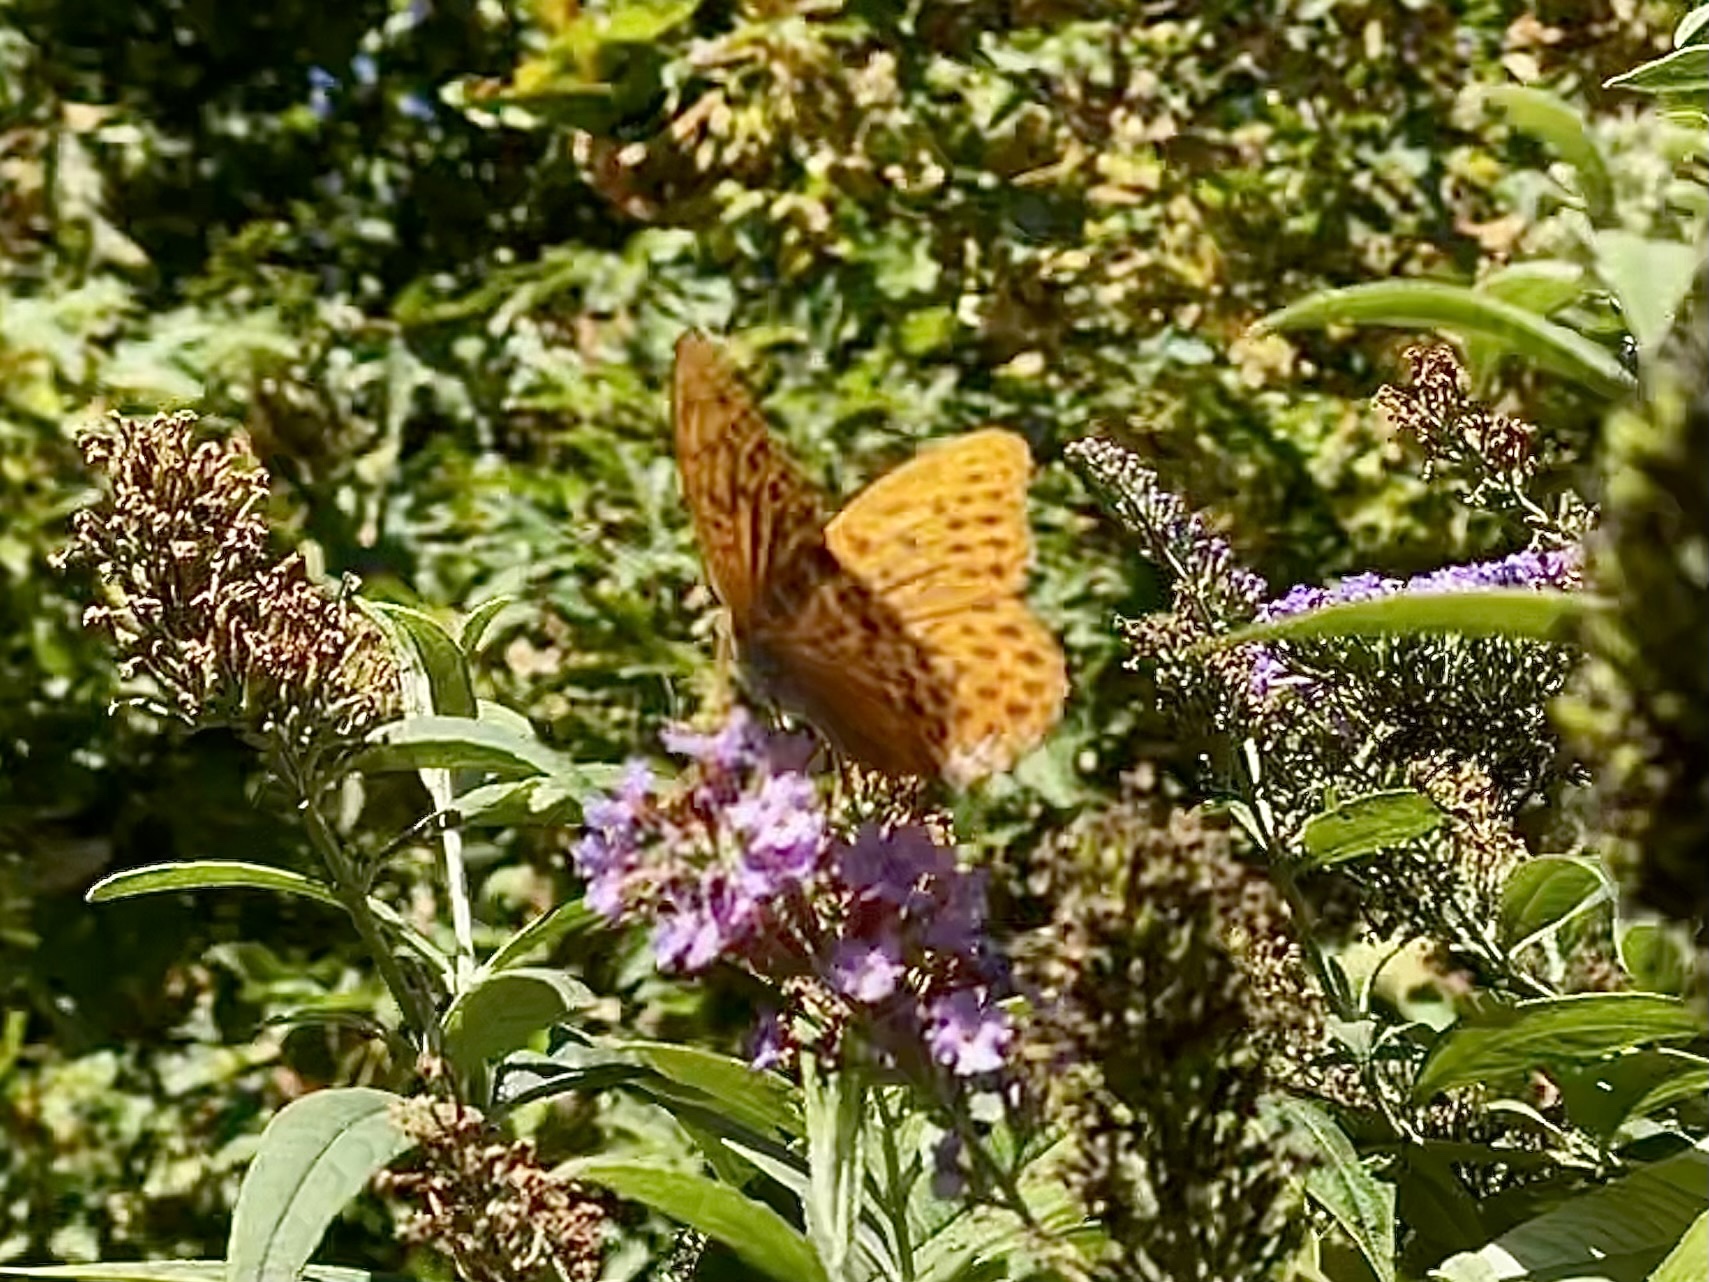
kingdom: Animalia
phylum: Arthropoda
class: Insecta
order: Lepidoptera
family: Nymphalidae
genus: Argynnis
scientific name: Argynnis paphia
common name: Silver-washed fritillary
